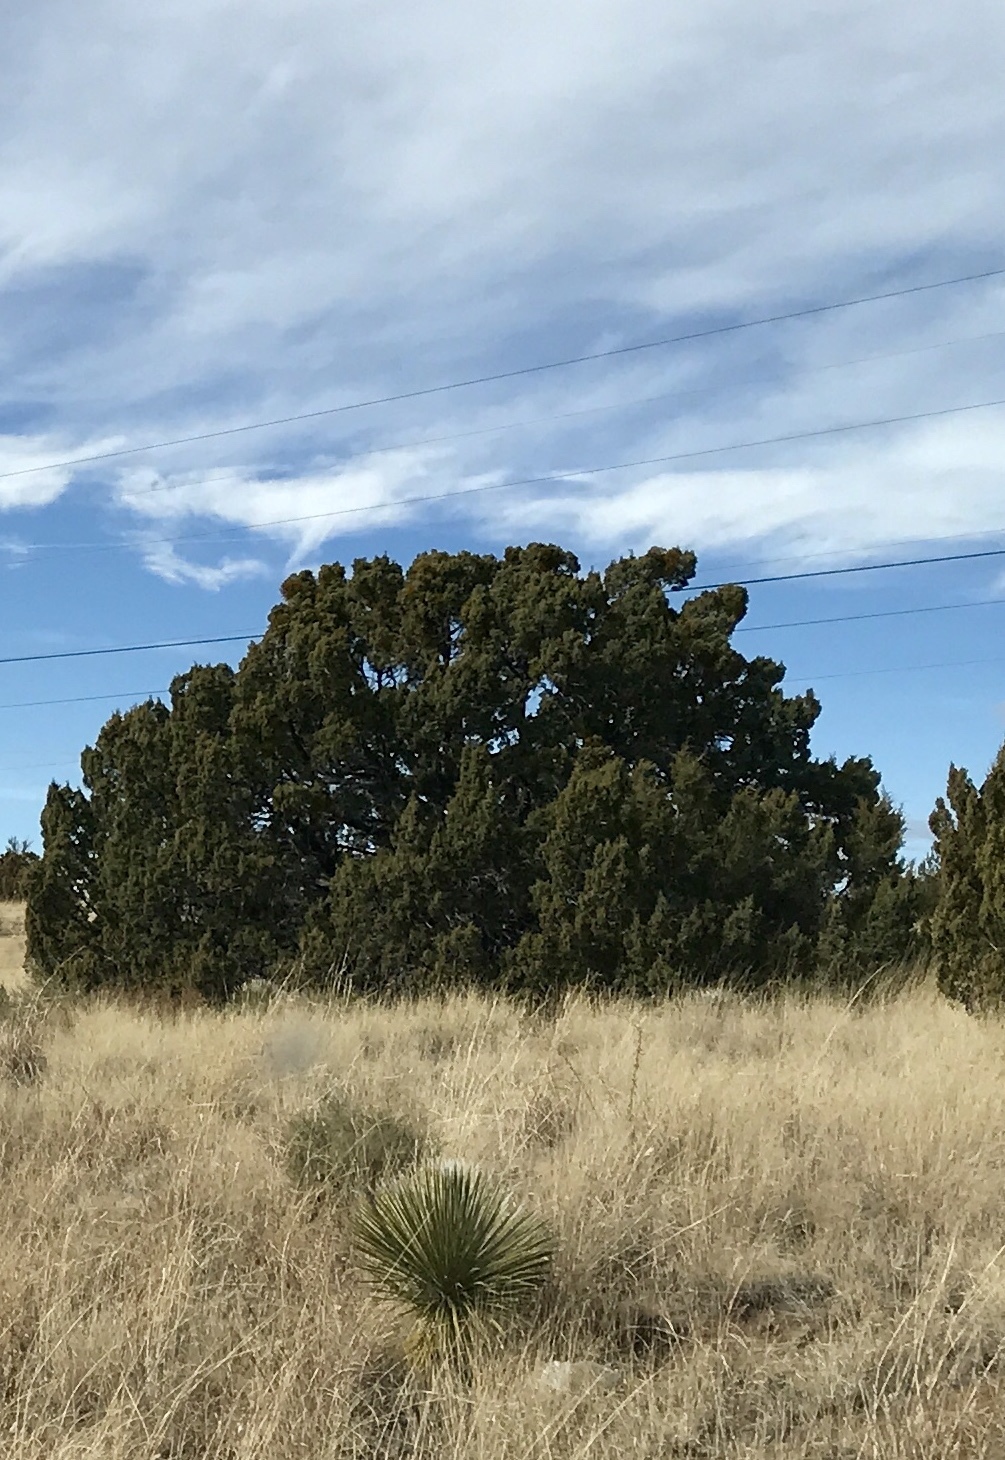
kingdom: Plantae
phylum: Tracheophyta
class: Pinopsida
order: Pinales
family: Cupressaceae
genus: Juniperus
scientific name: Juniperus deppeana
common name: Alligator juniper
